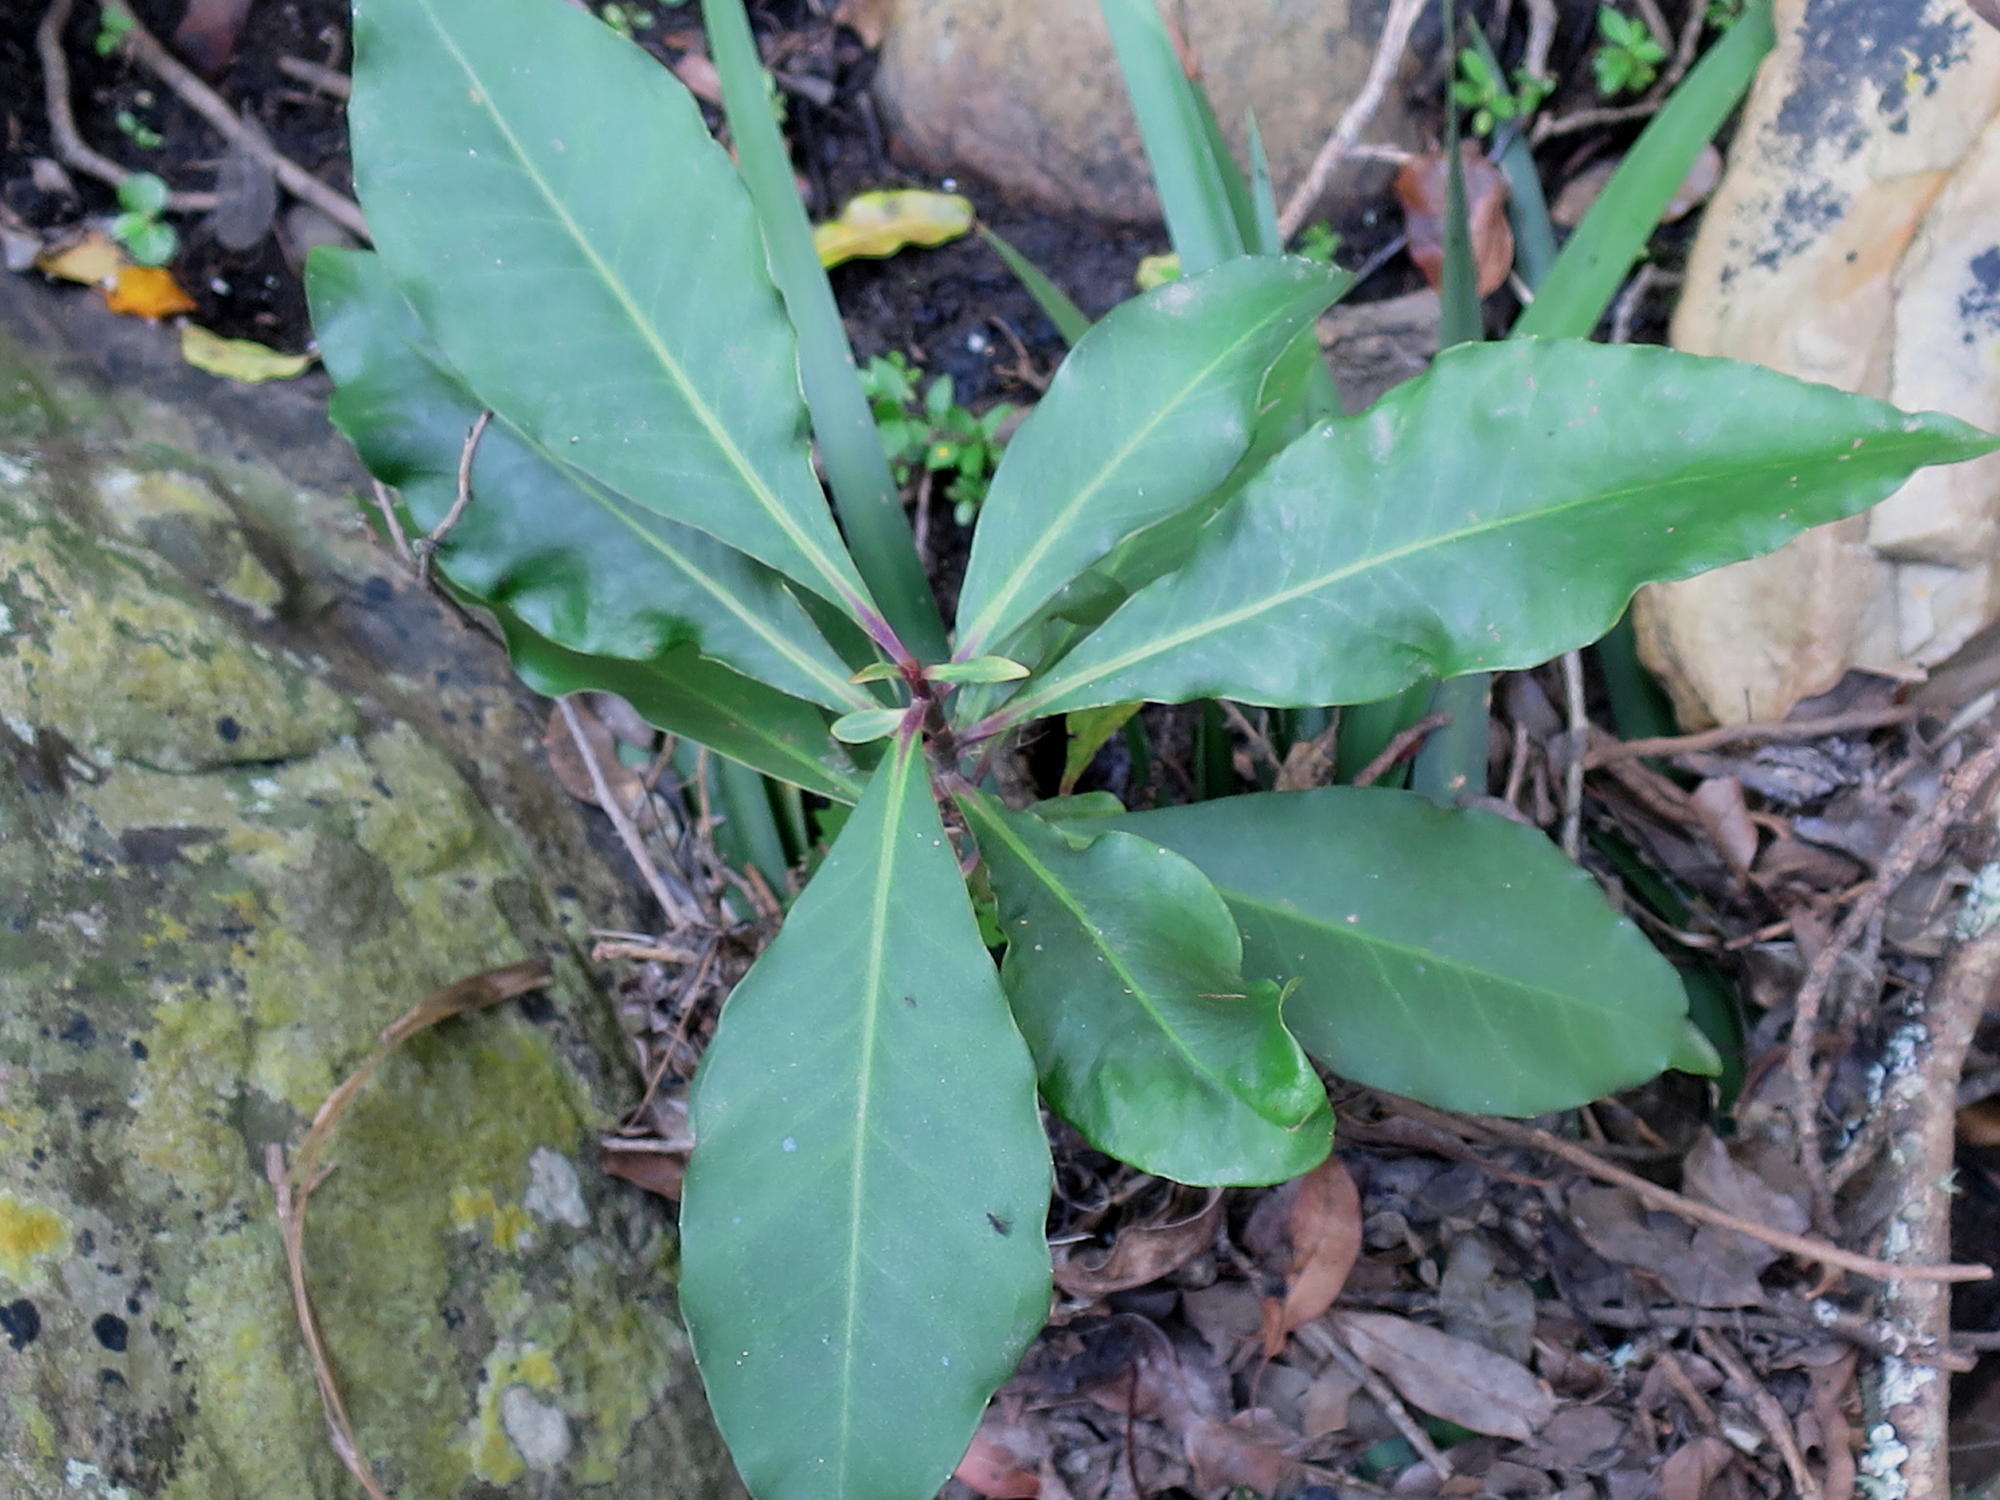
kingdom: Plantae
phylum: Tracheophyta
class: Magnoliopsida
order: Ericales
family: Primulaceae
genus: Myrsine
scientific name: Myrsine melanophloeos
